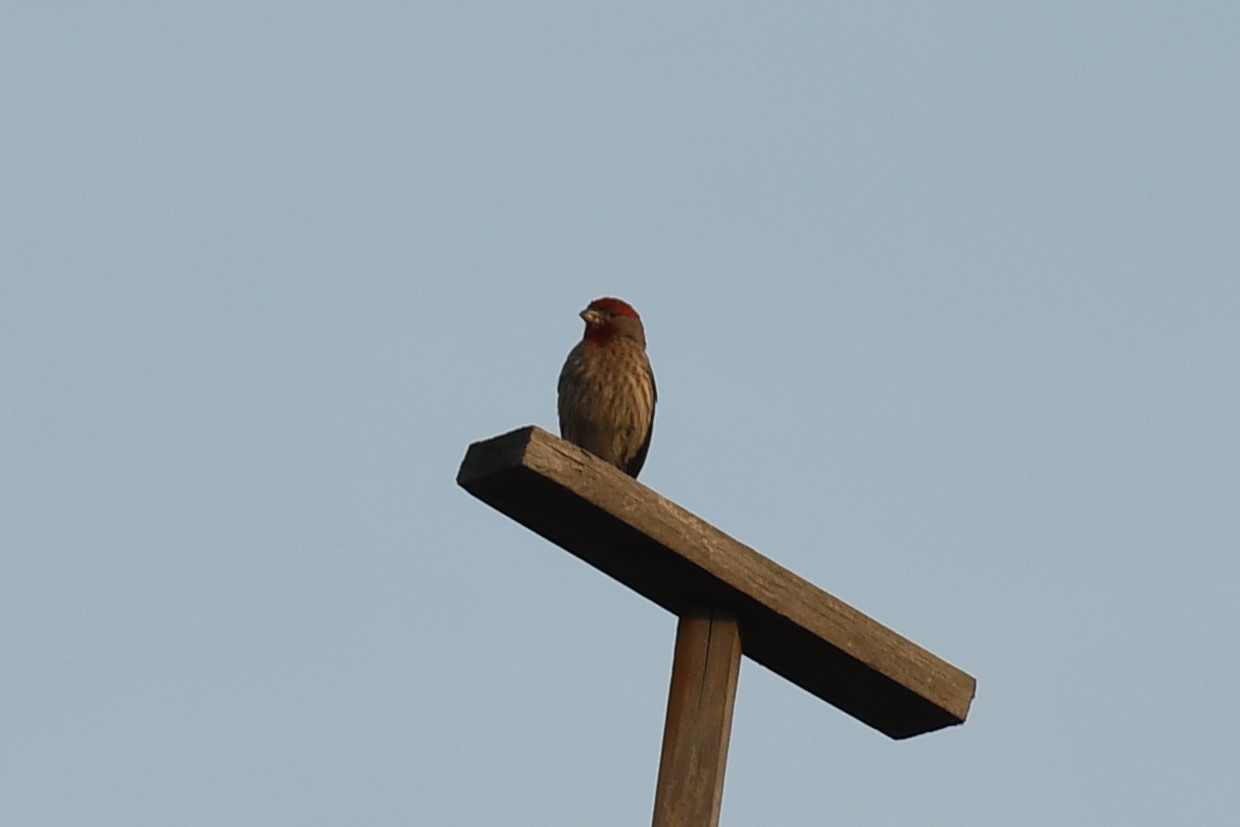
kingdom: Animalia
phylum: Chordata
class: Aves
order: Passeriformes
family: Fringillidae
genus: Haemorhous
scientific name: Haemorhous mexicanus
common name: House finch
